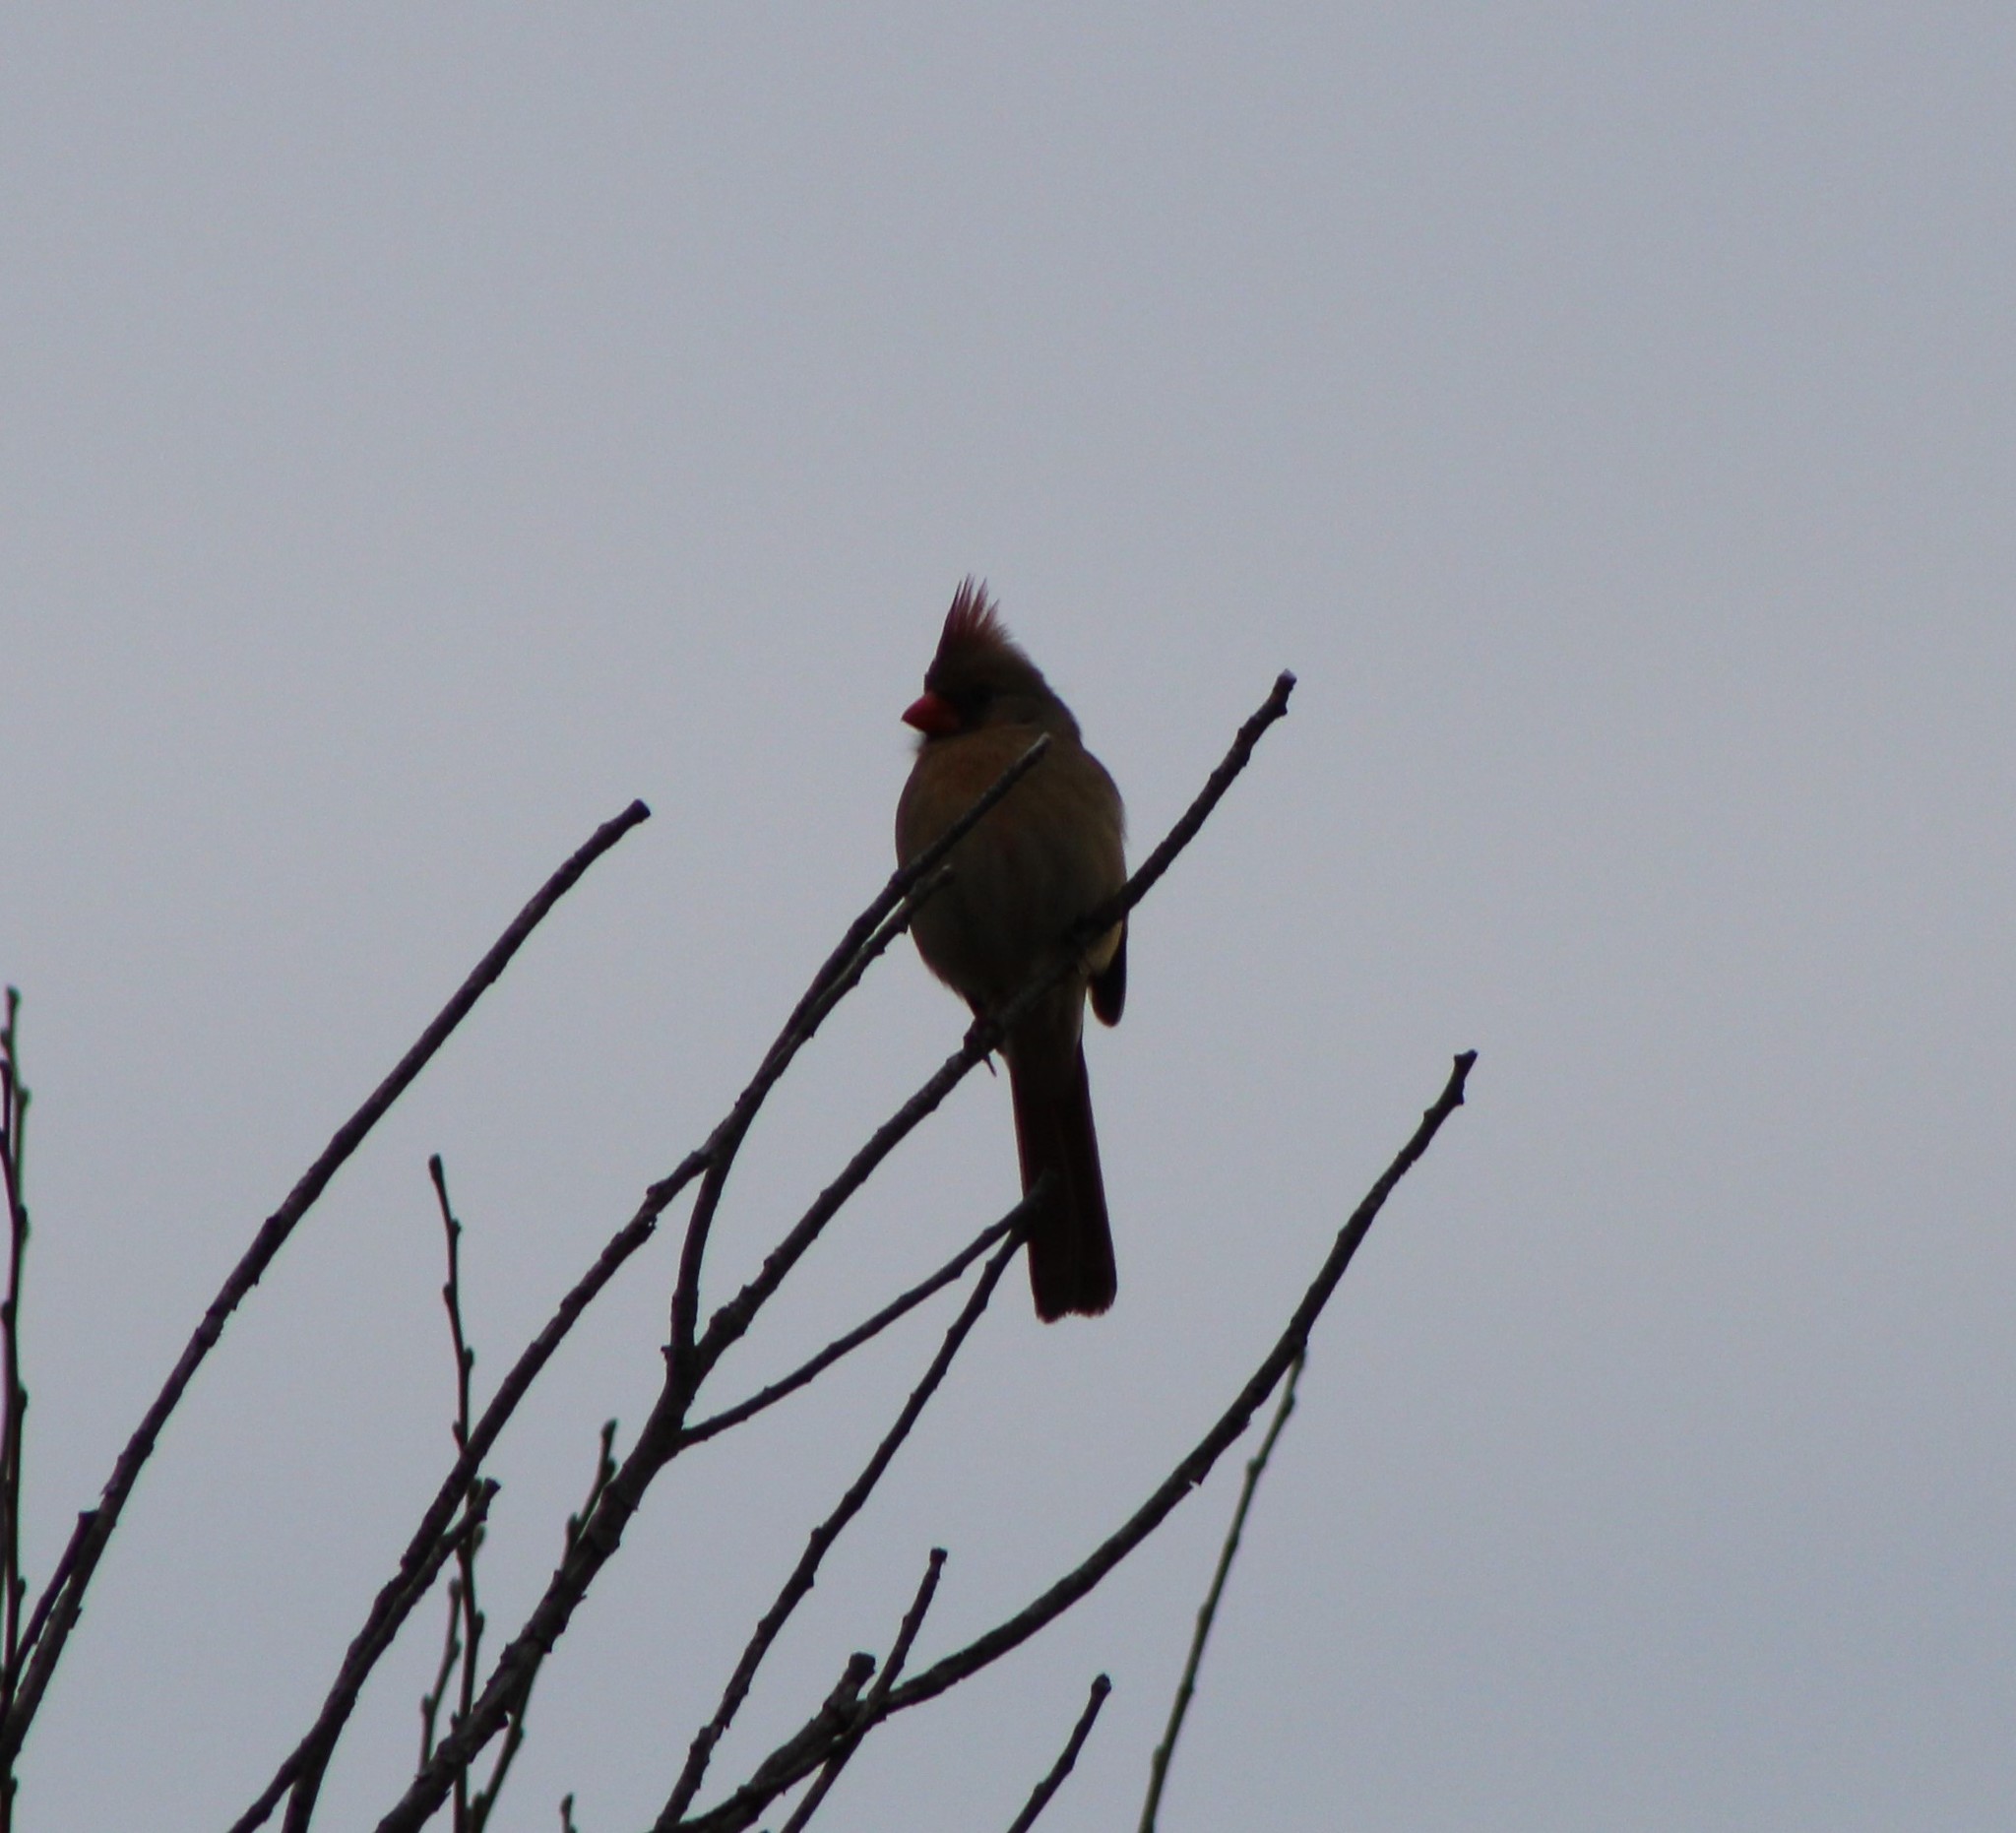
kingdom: Animalia
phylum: Chordata
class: Aves
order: Passeriformes
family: Cardinalidae
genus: Cardinalis
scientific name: Cardinalis cardinalis
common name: Northern cardinal
